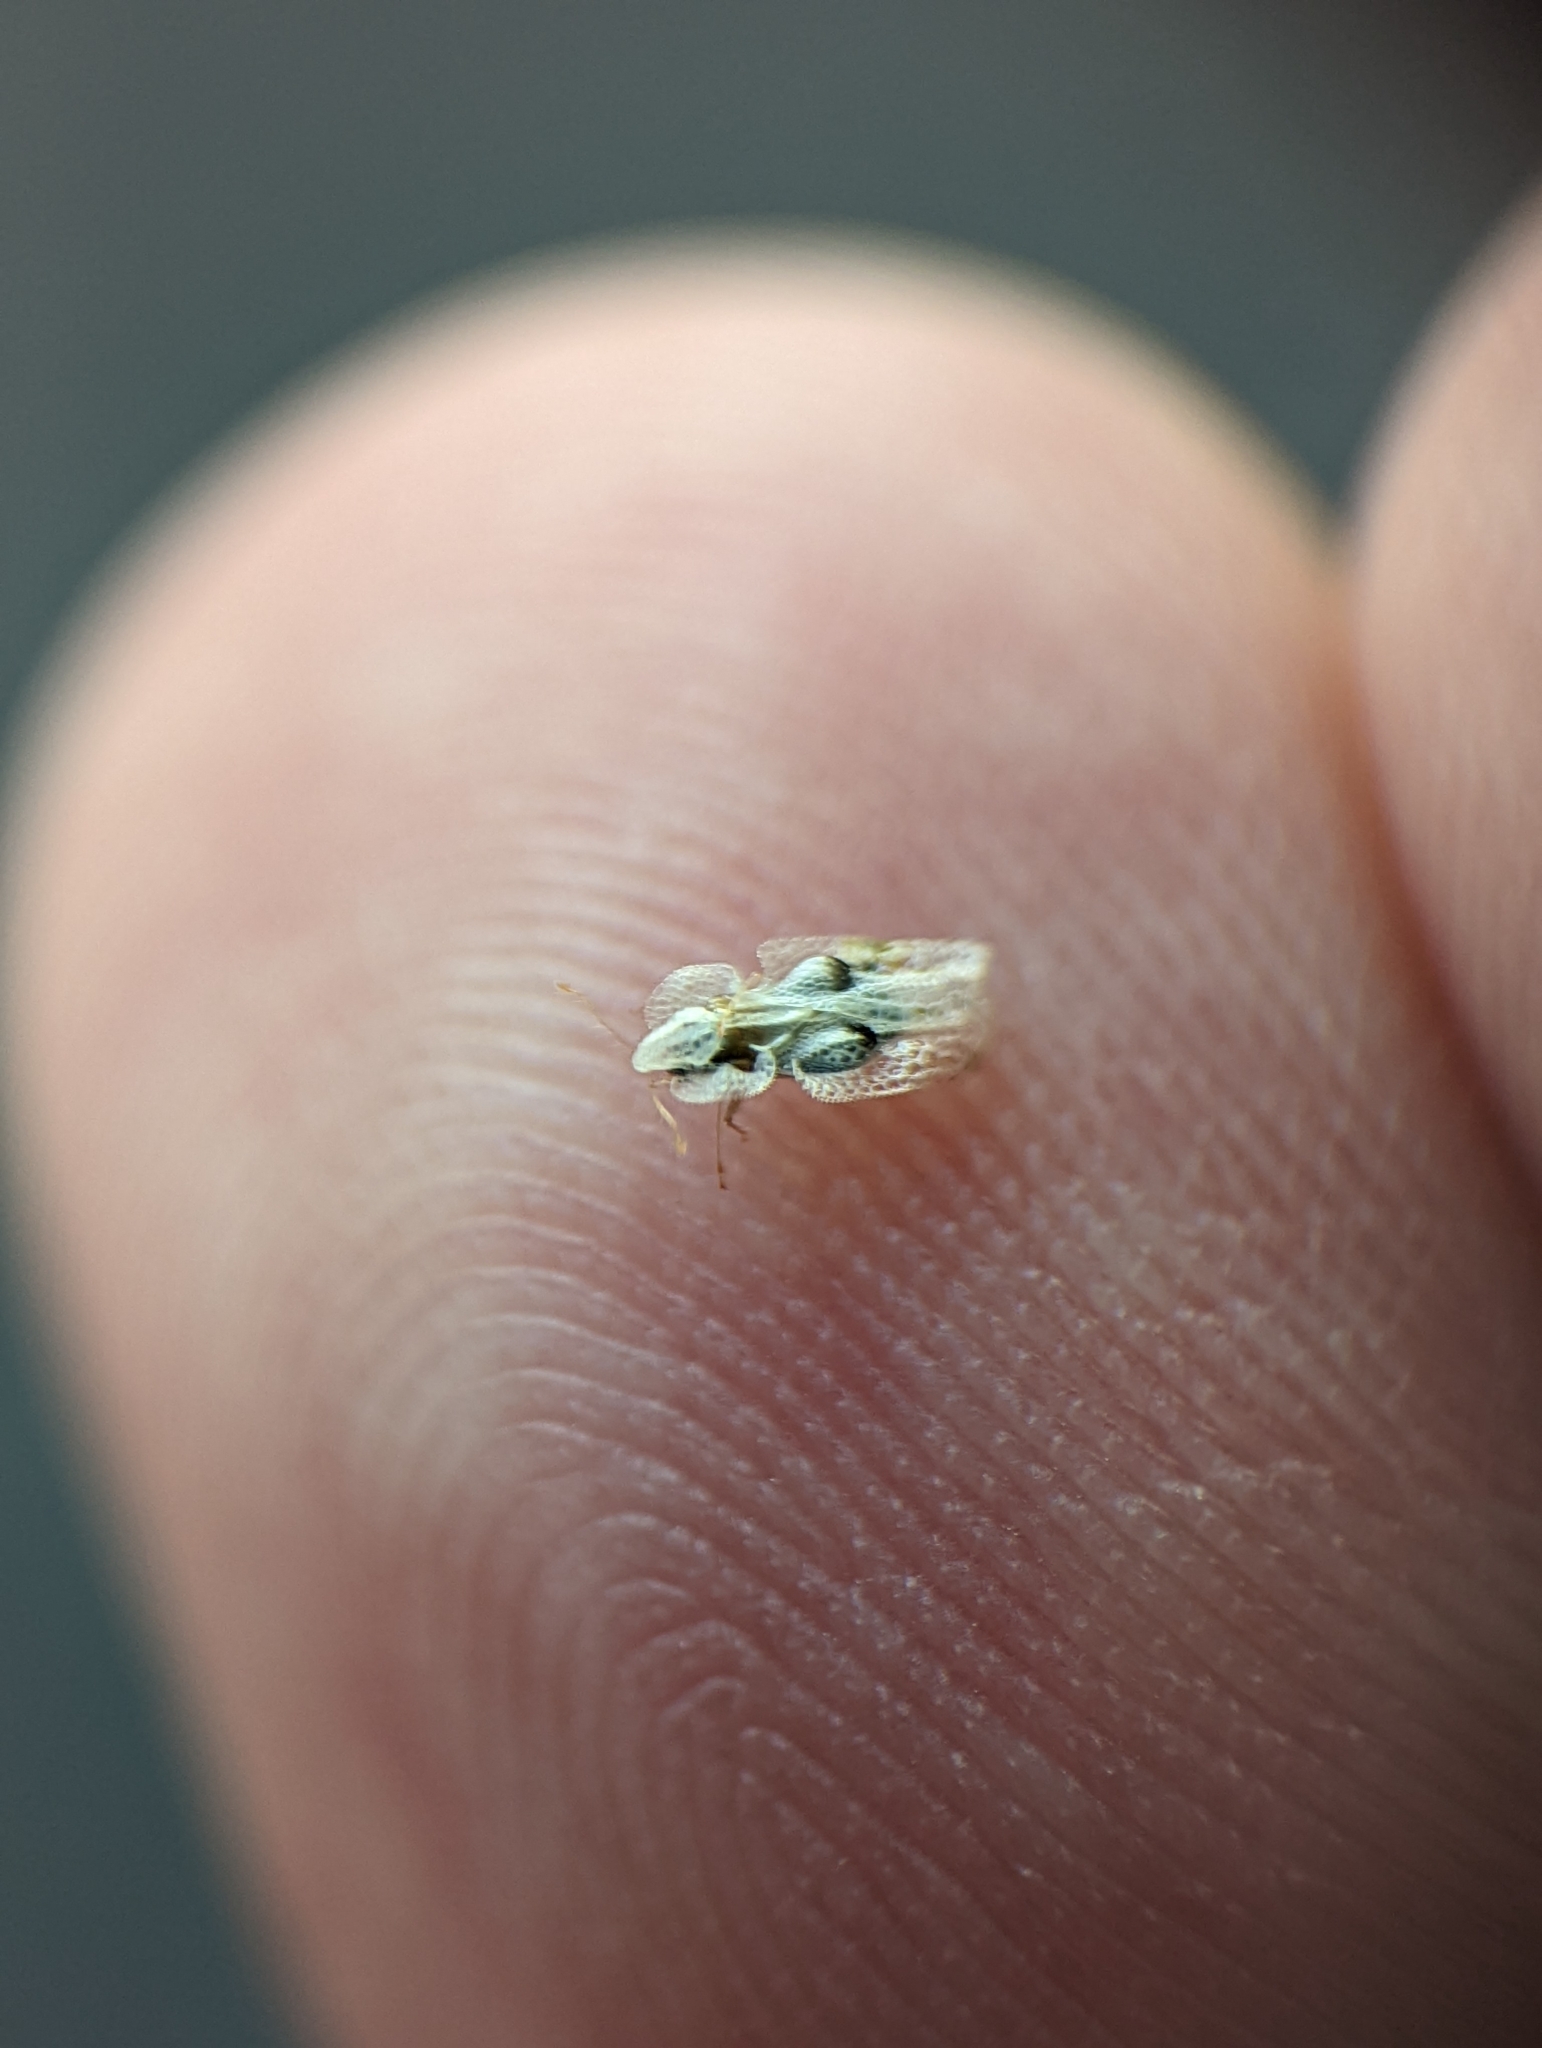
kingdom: Animalia
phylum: Arthropoda
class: Insecta
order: Hemiptera
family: Tingidae
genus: Corythucha
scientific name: Corythucha ciliata
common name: Sycamore lace bug
